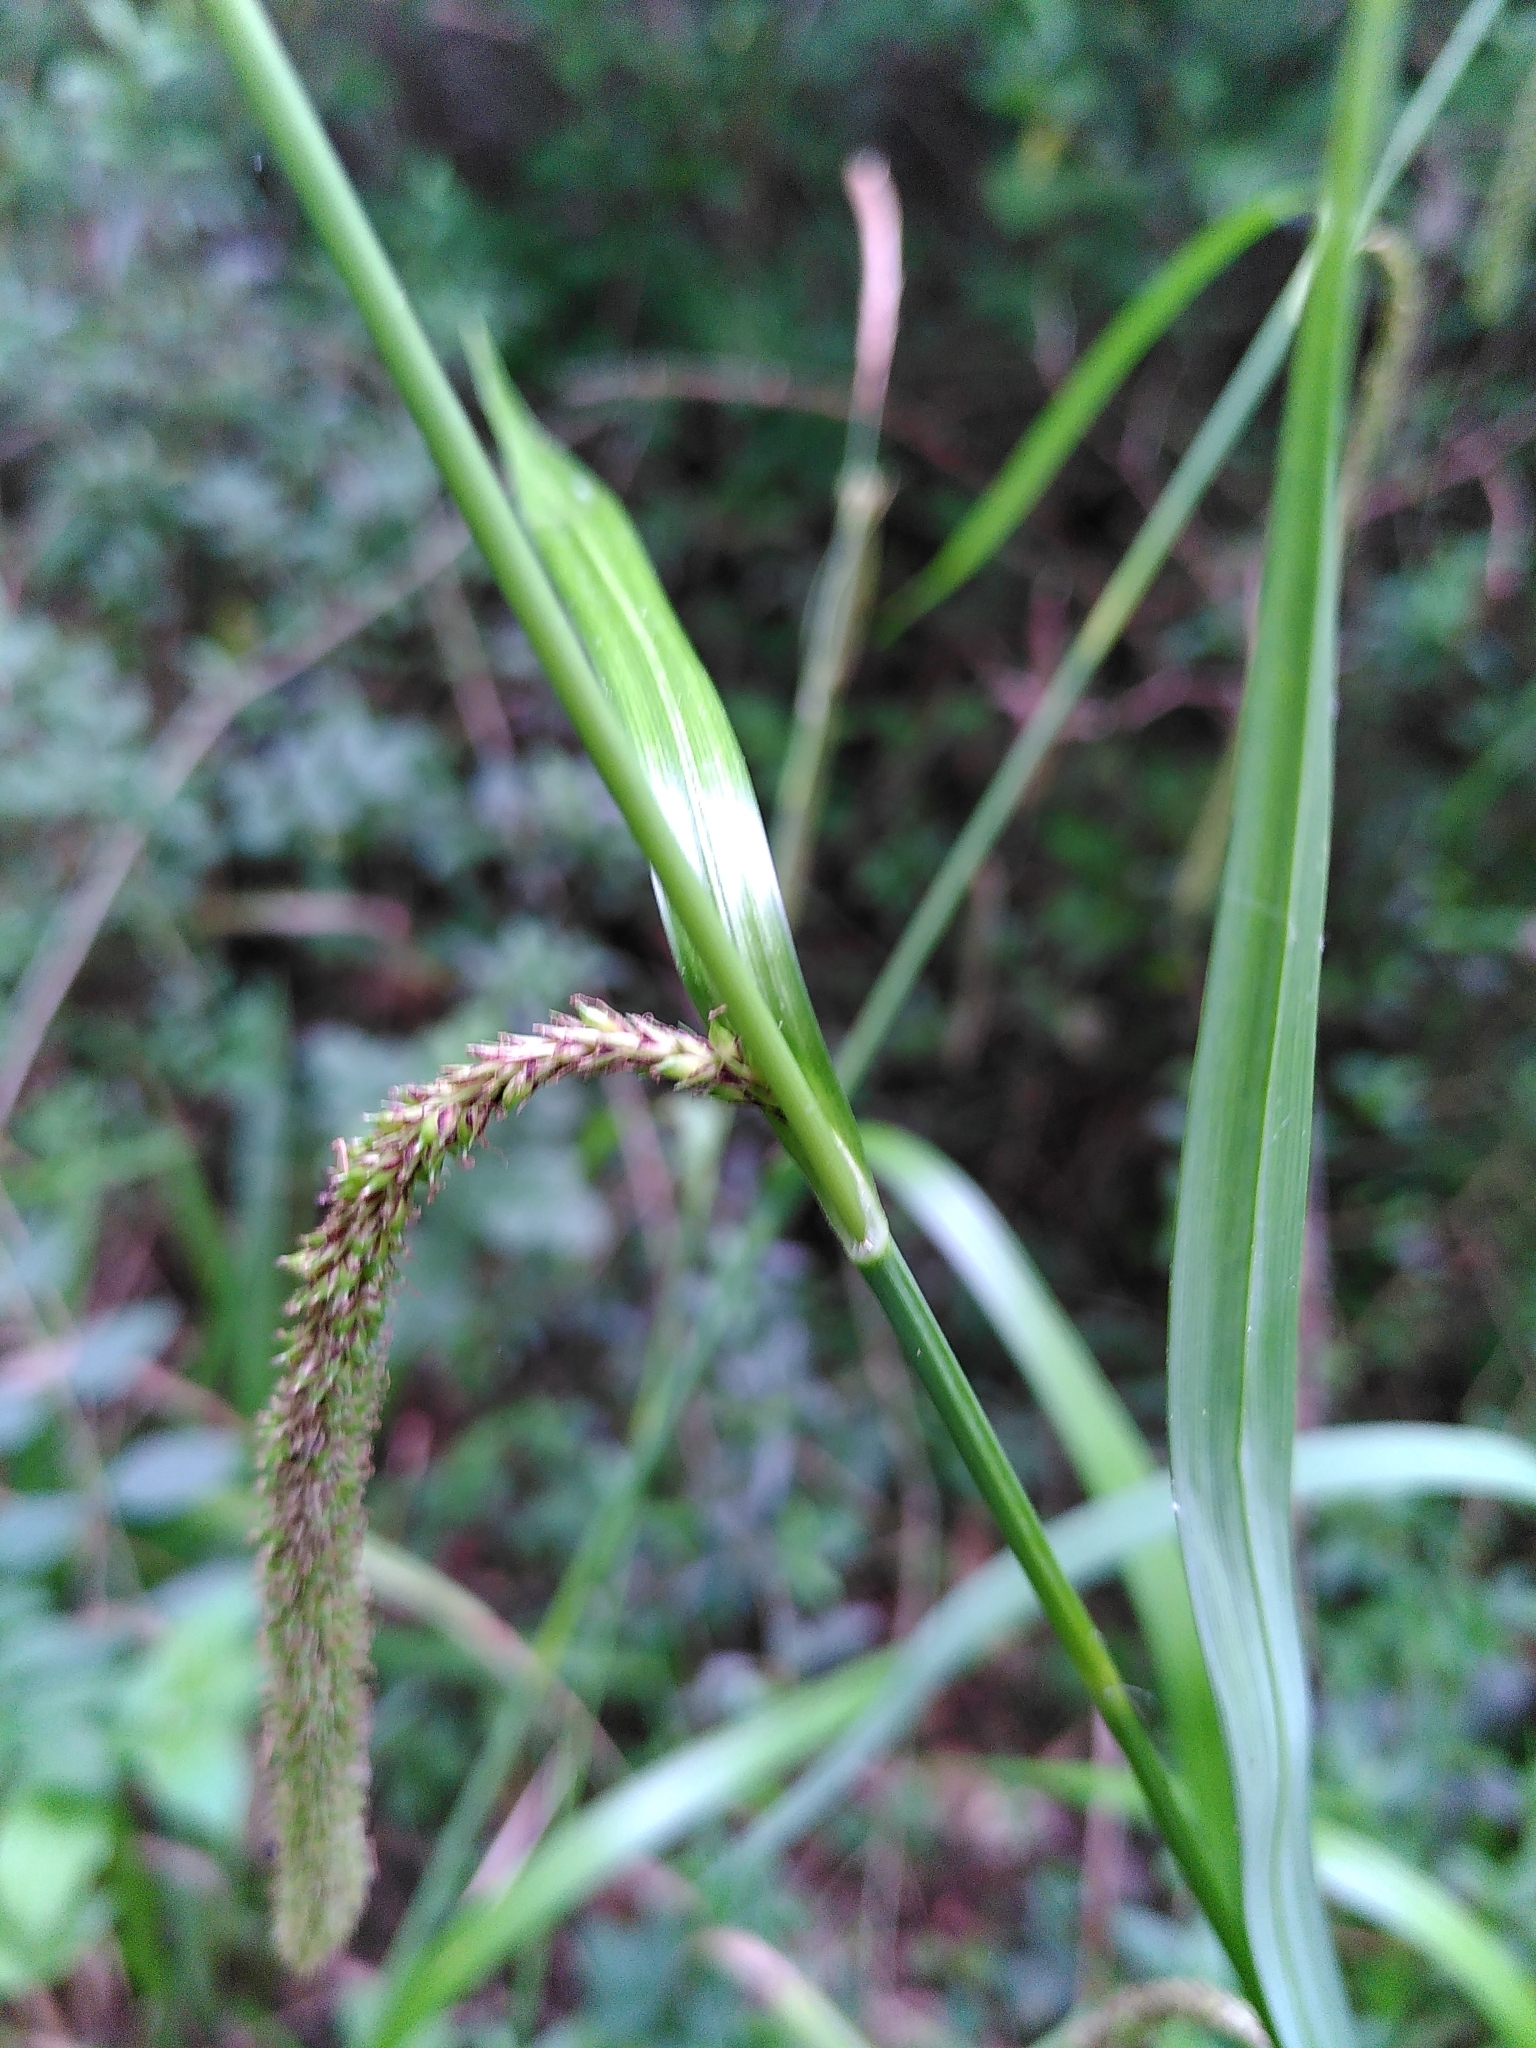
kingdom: Plantae
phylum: Tracheophyta
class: Liliopsida
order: Poales
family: Cyperaceae
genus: Carex
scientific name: Carex pendula
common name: Pendulous sedge
